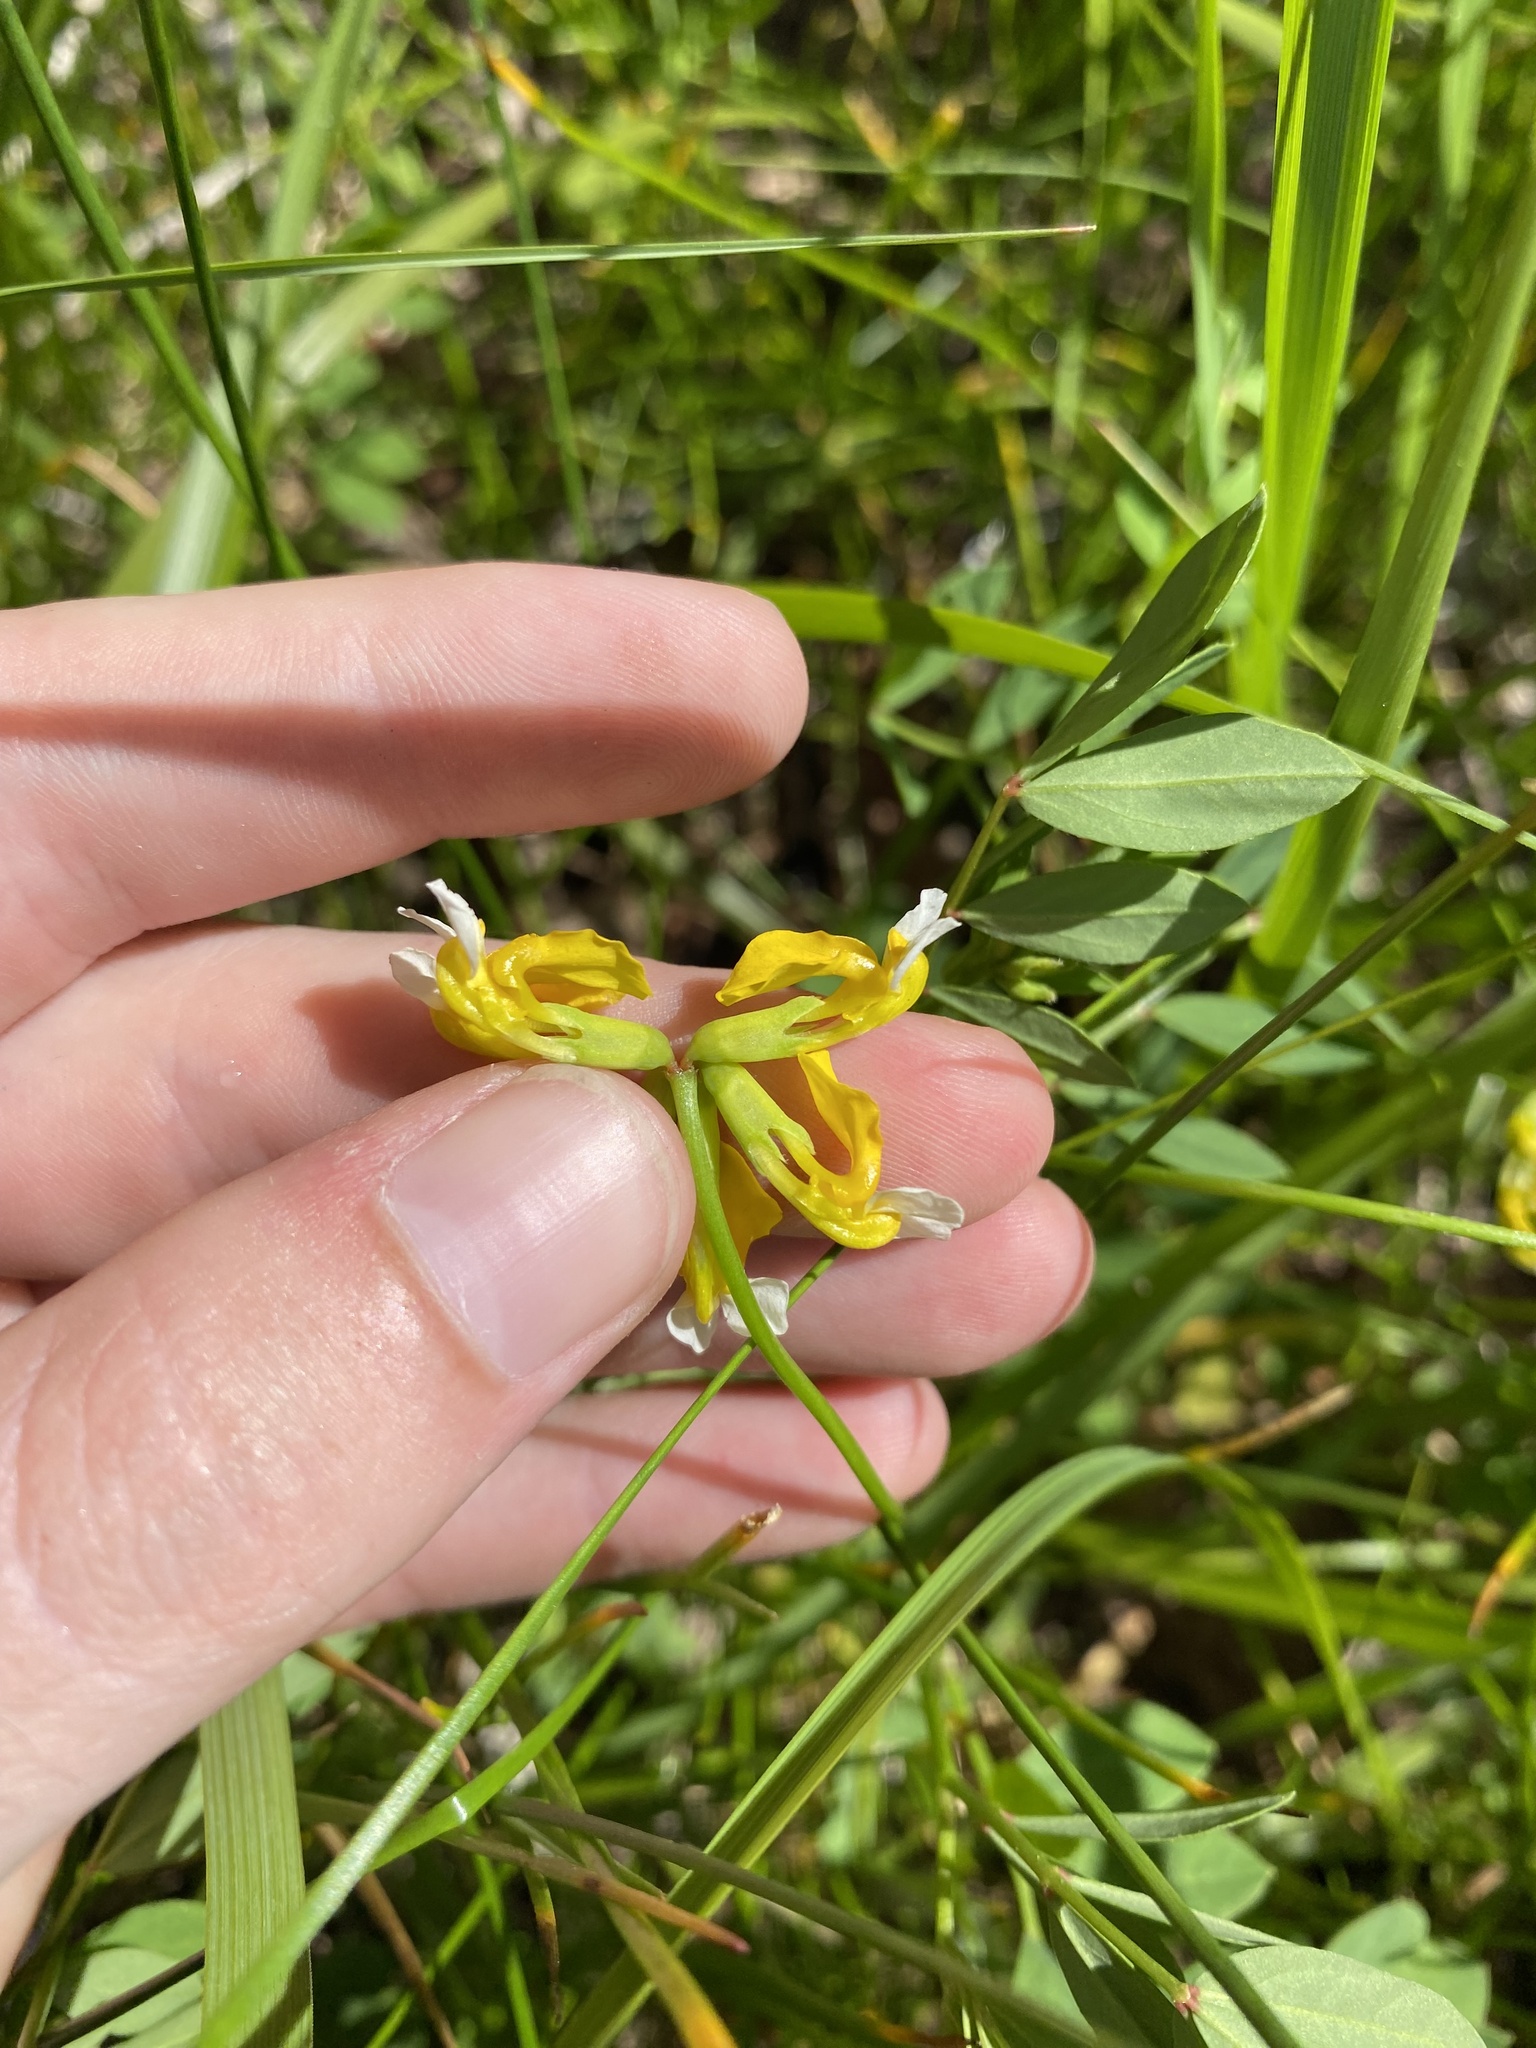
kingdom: Plantae
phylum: Tracheophyta
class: Magnoliopsida
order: Fabales
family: Fabaceae
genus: Hosackia
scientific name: Hosackia pinnata
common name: Bog bird's-foot trefoil
